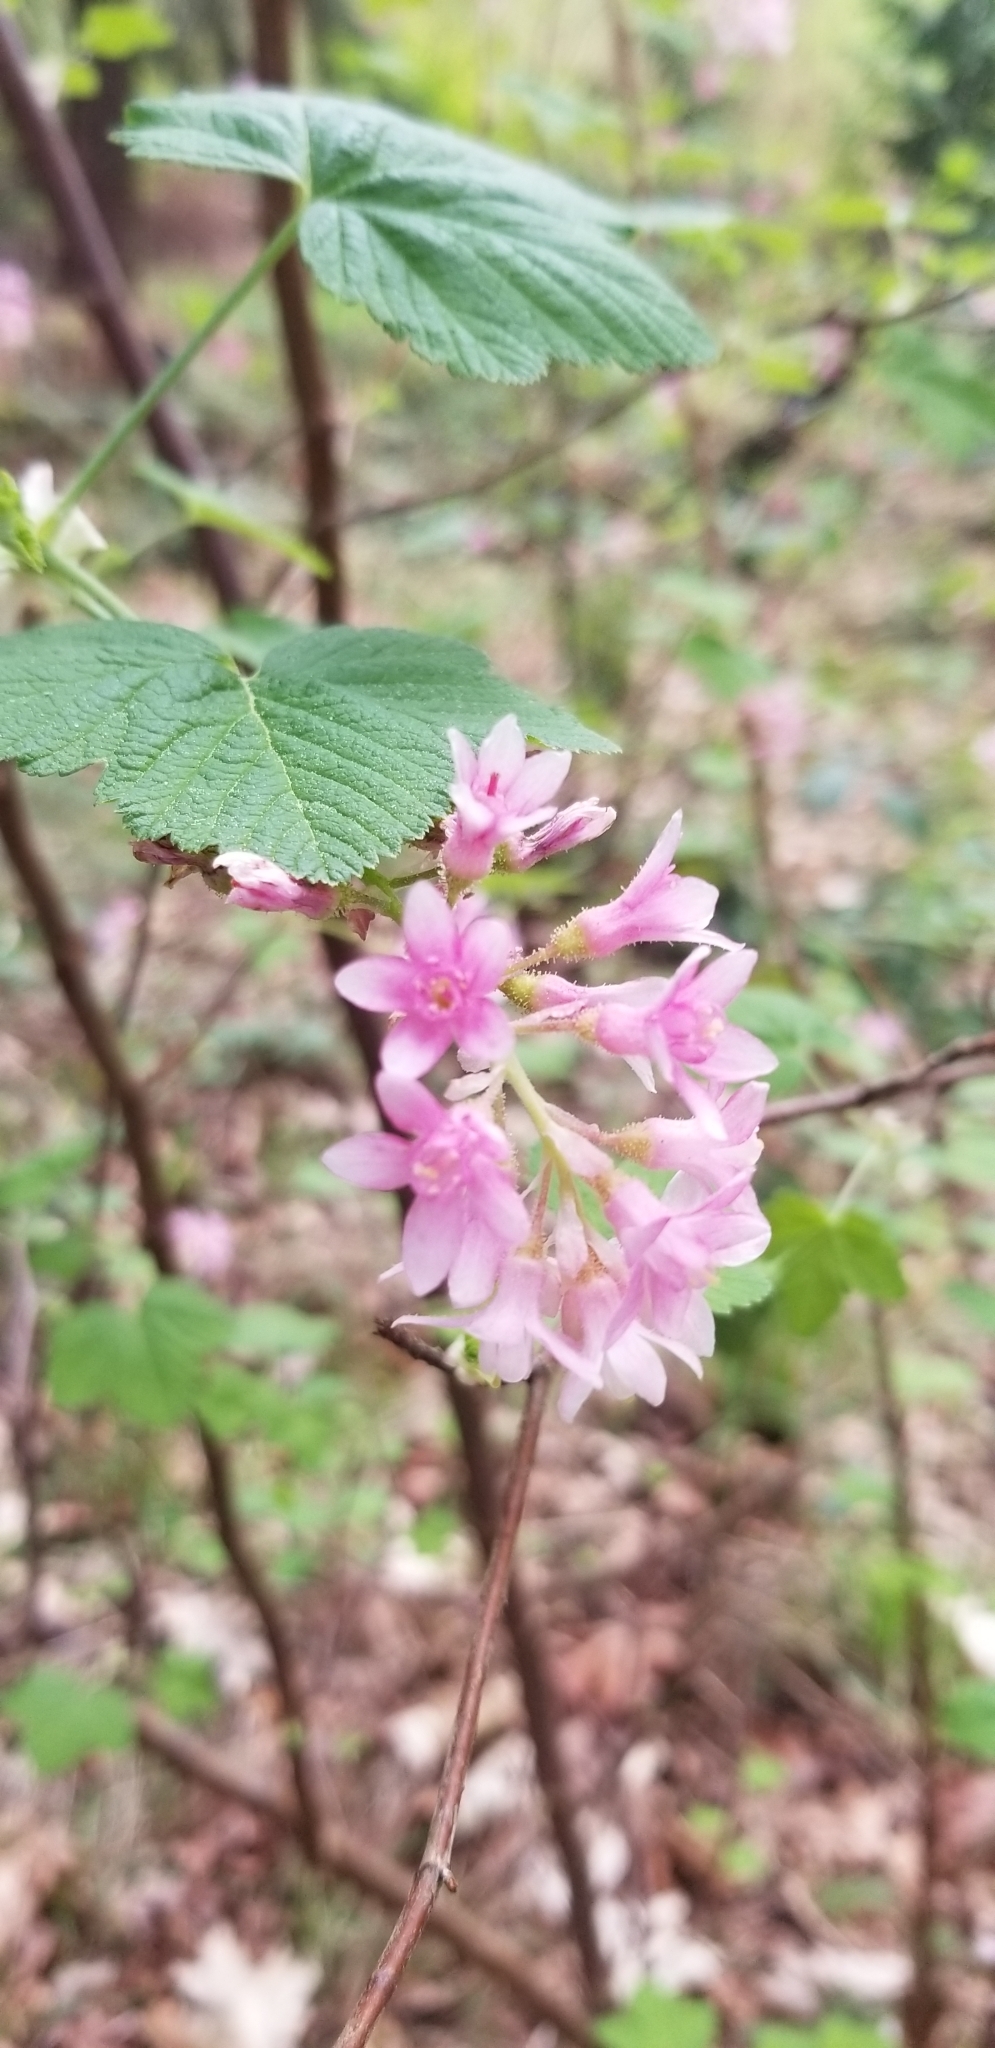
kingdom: Plantae
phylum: Tracheophyta
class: Magnoliopsida
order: Saxifragales
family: Grossulariaceae
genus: Ribes
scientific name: Ribes sanguineum
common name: Flowering currant
